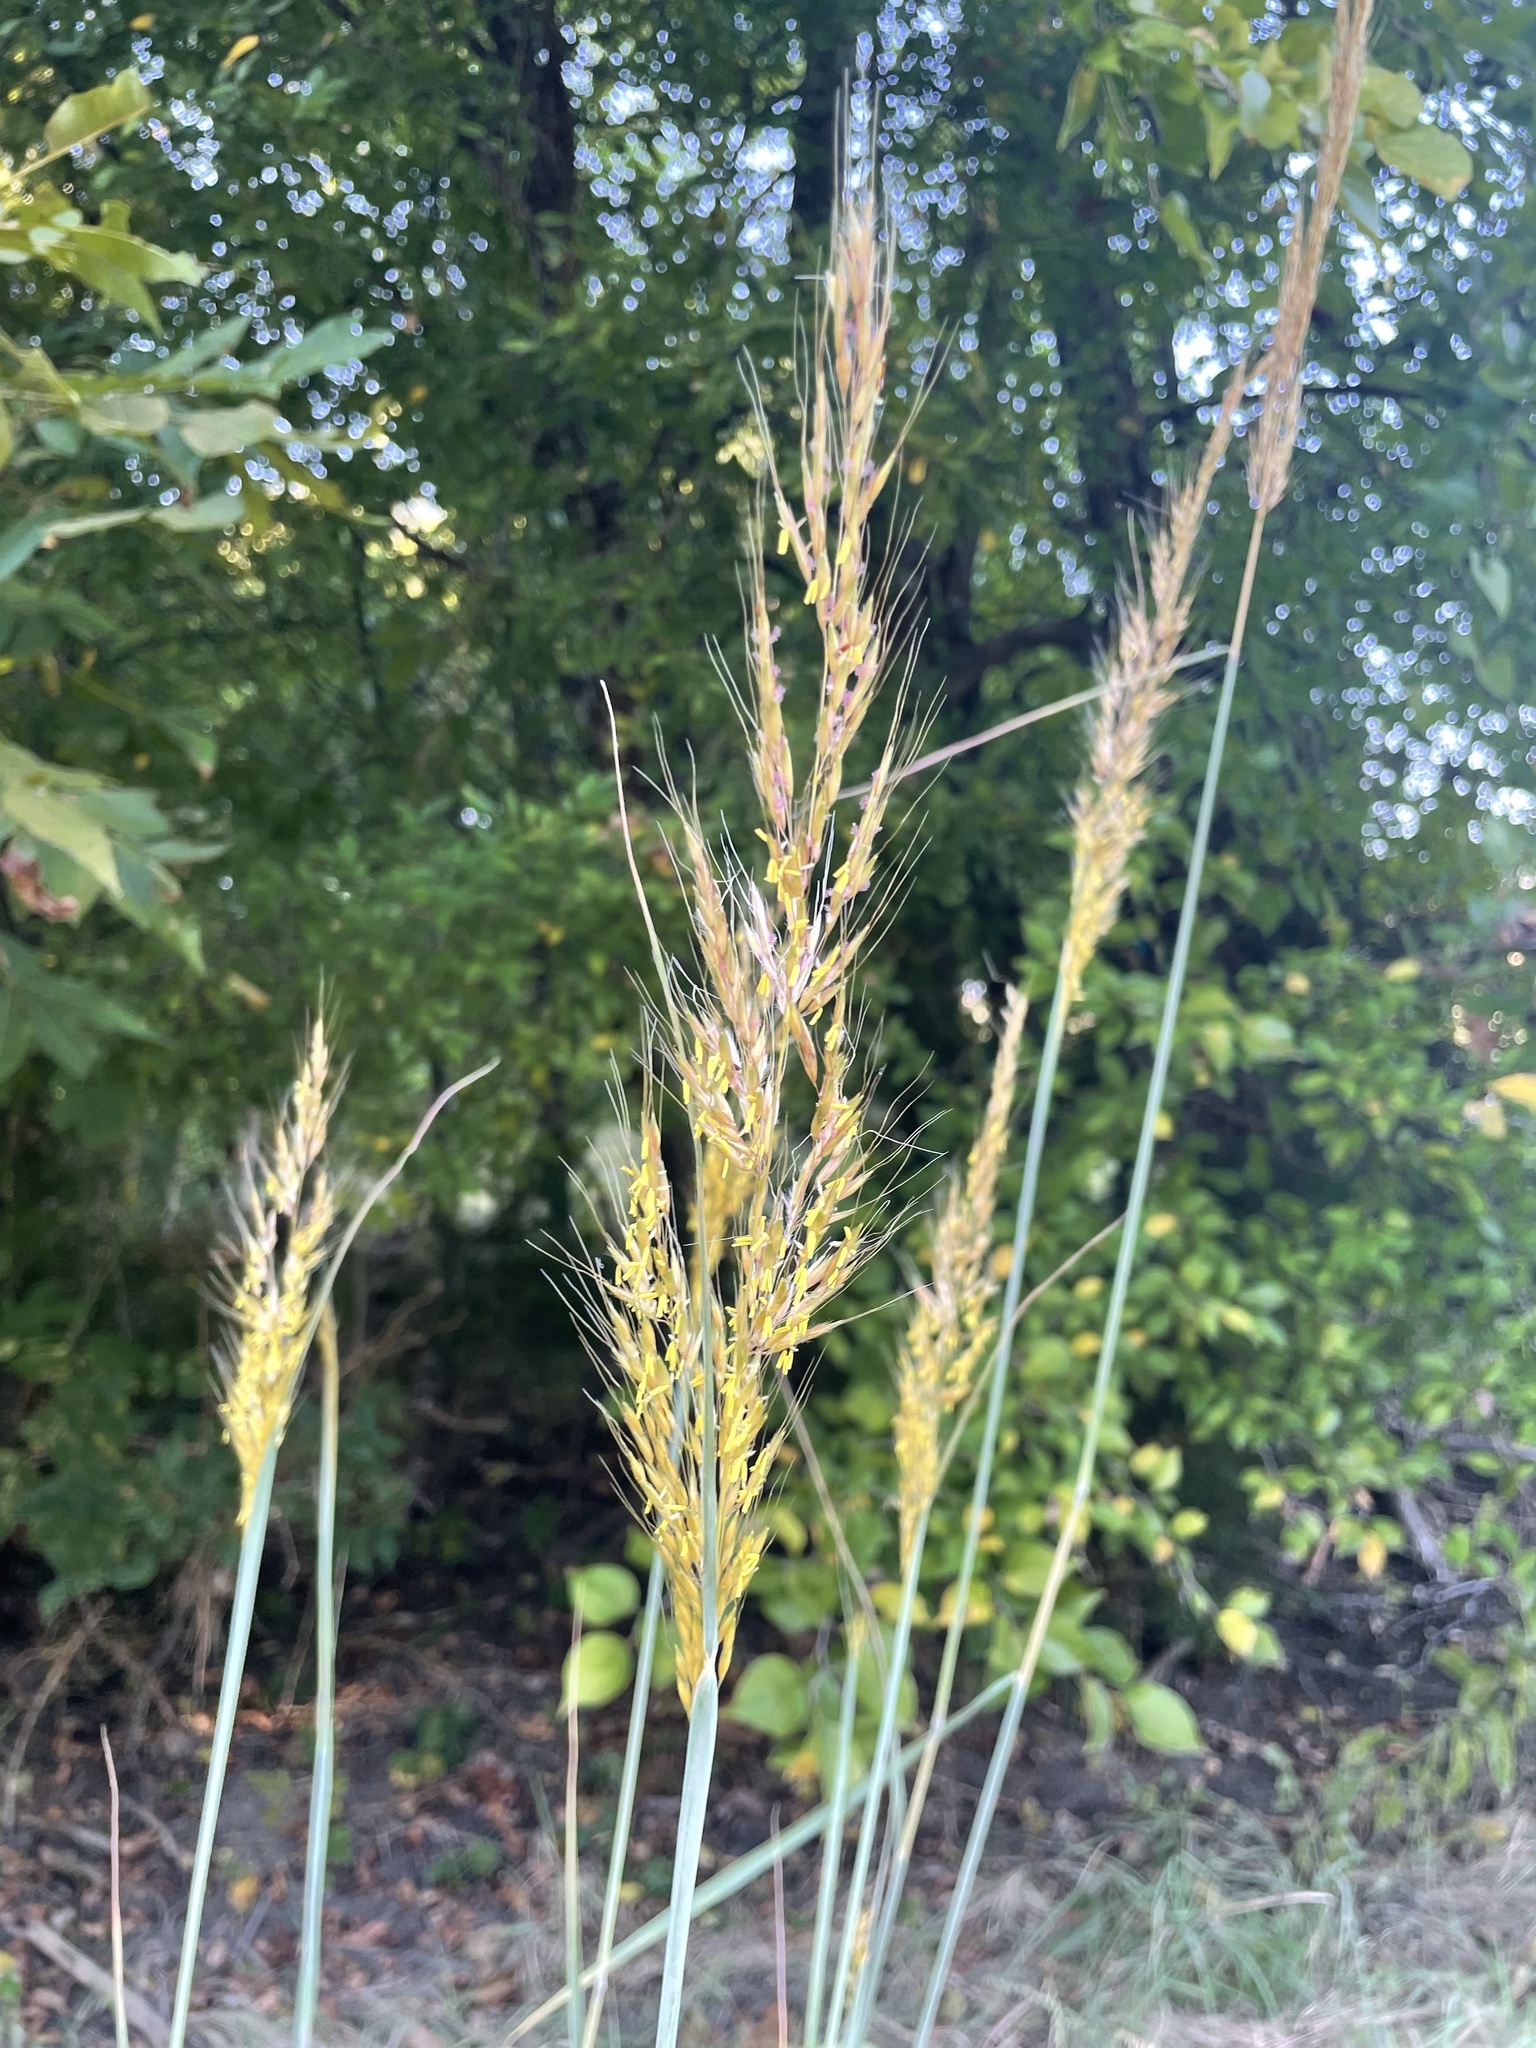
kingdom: Plantae
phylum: Tracheophyta
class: Liliopsida
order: Poales
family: Poaceae
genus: Sorghastrum
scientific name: Sorghastrum nutans
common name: Indian grass
